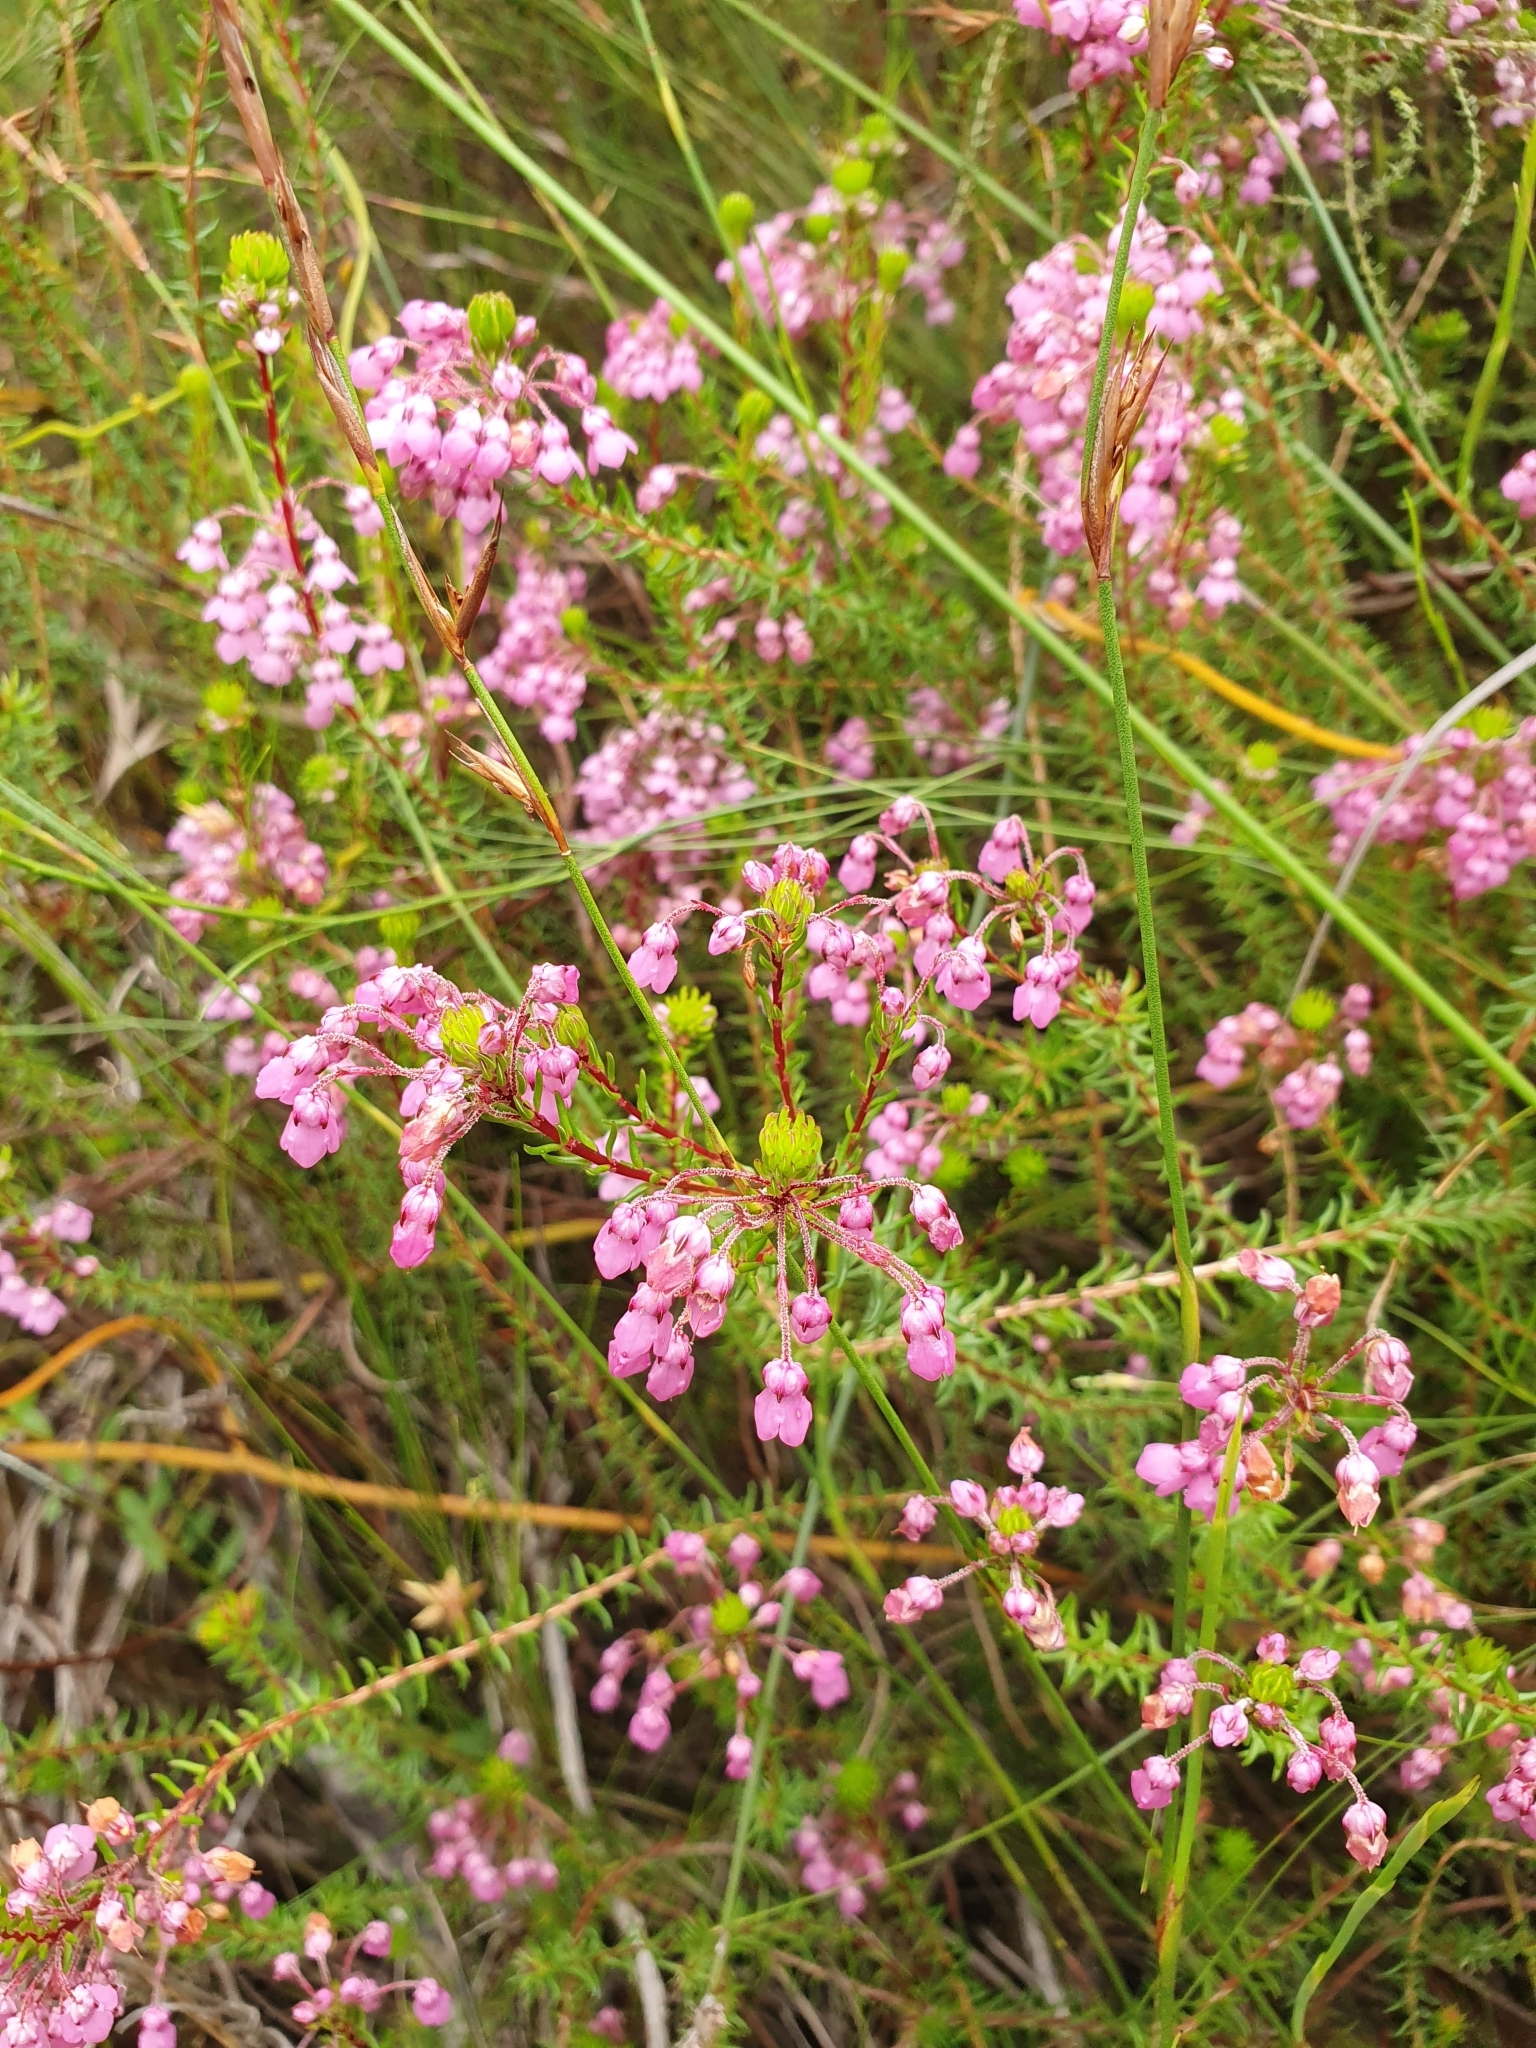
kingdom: Plantae
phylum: Tracheophyta
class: Magnoliopsida
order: Ericales
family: Ericaceae
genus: Erica
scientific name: Erica cubica
